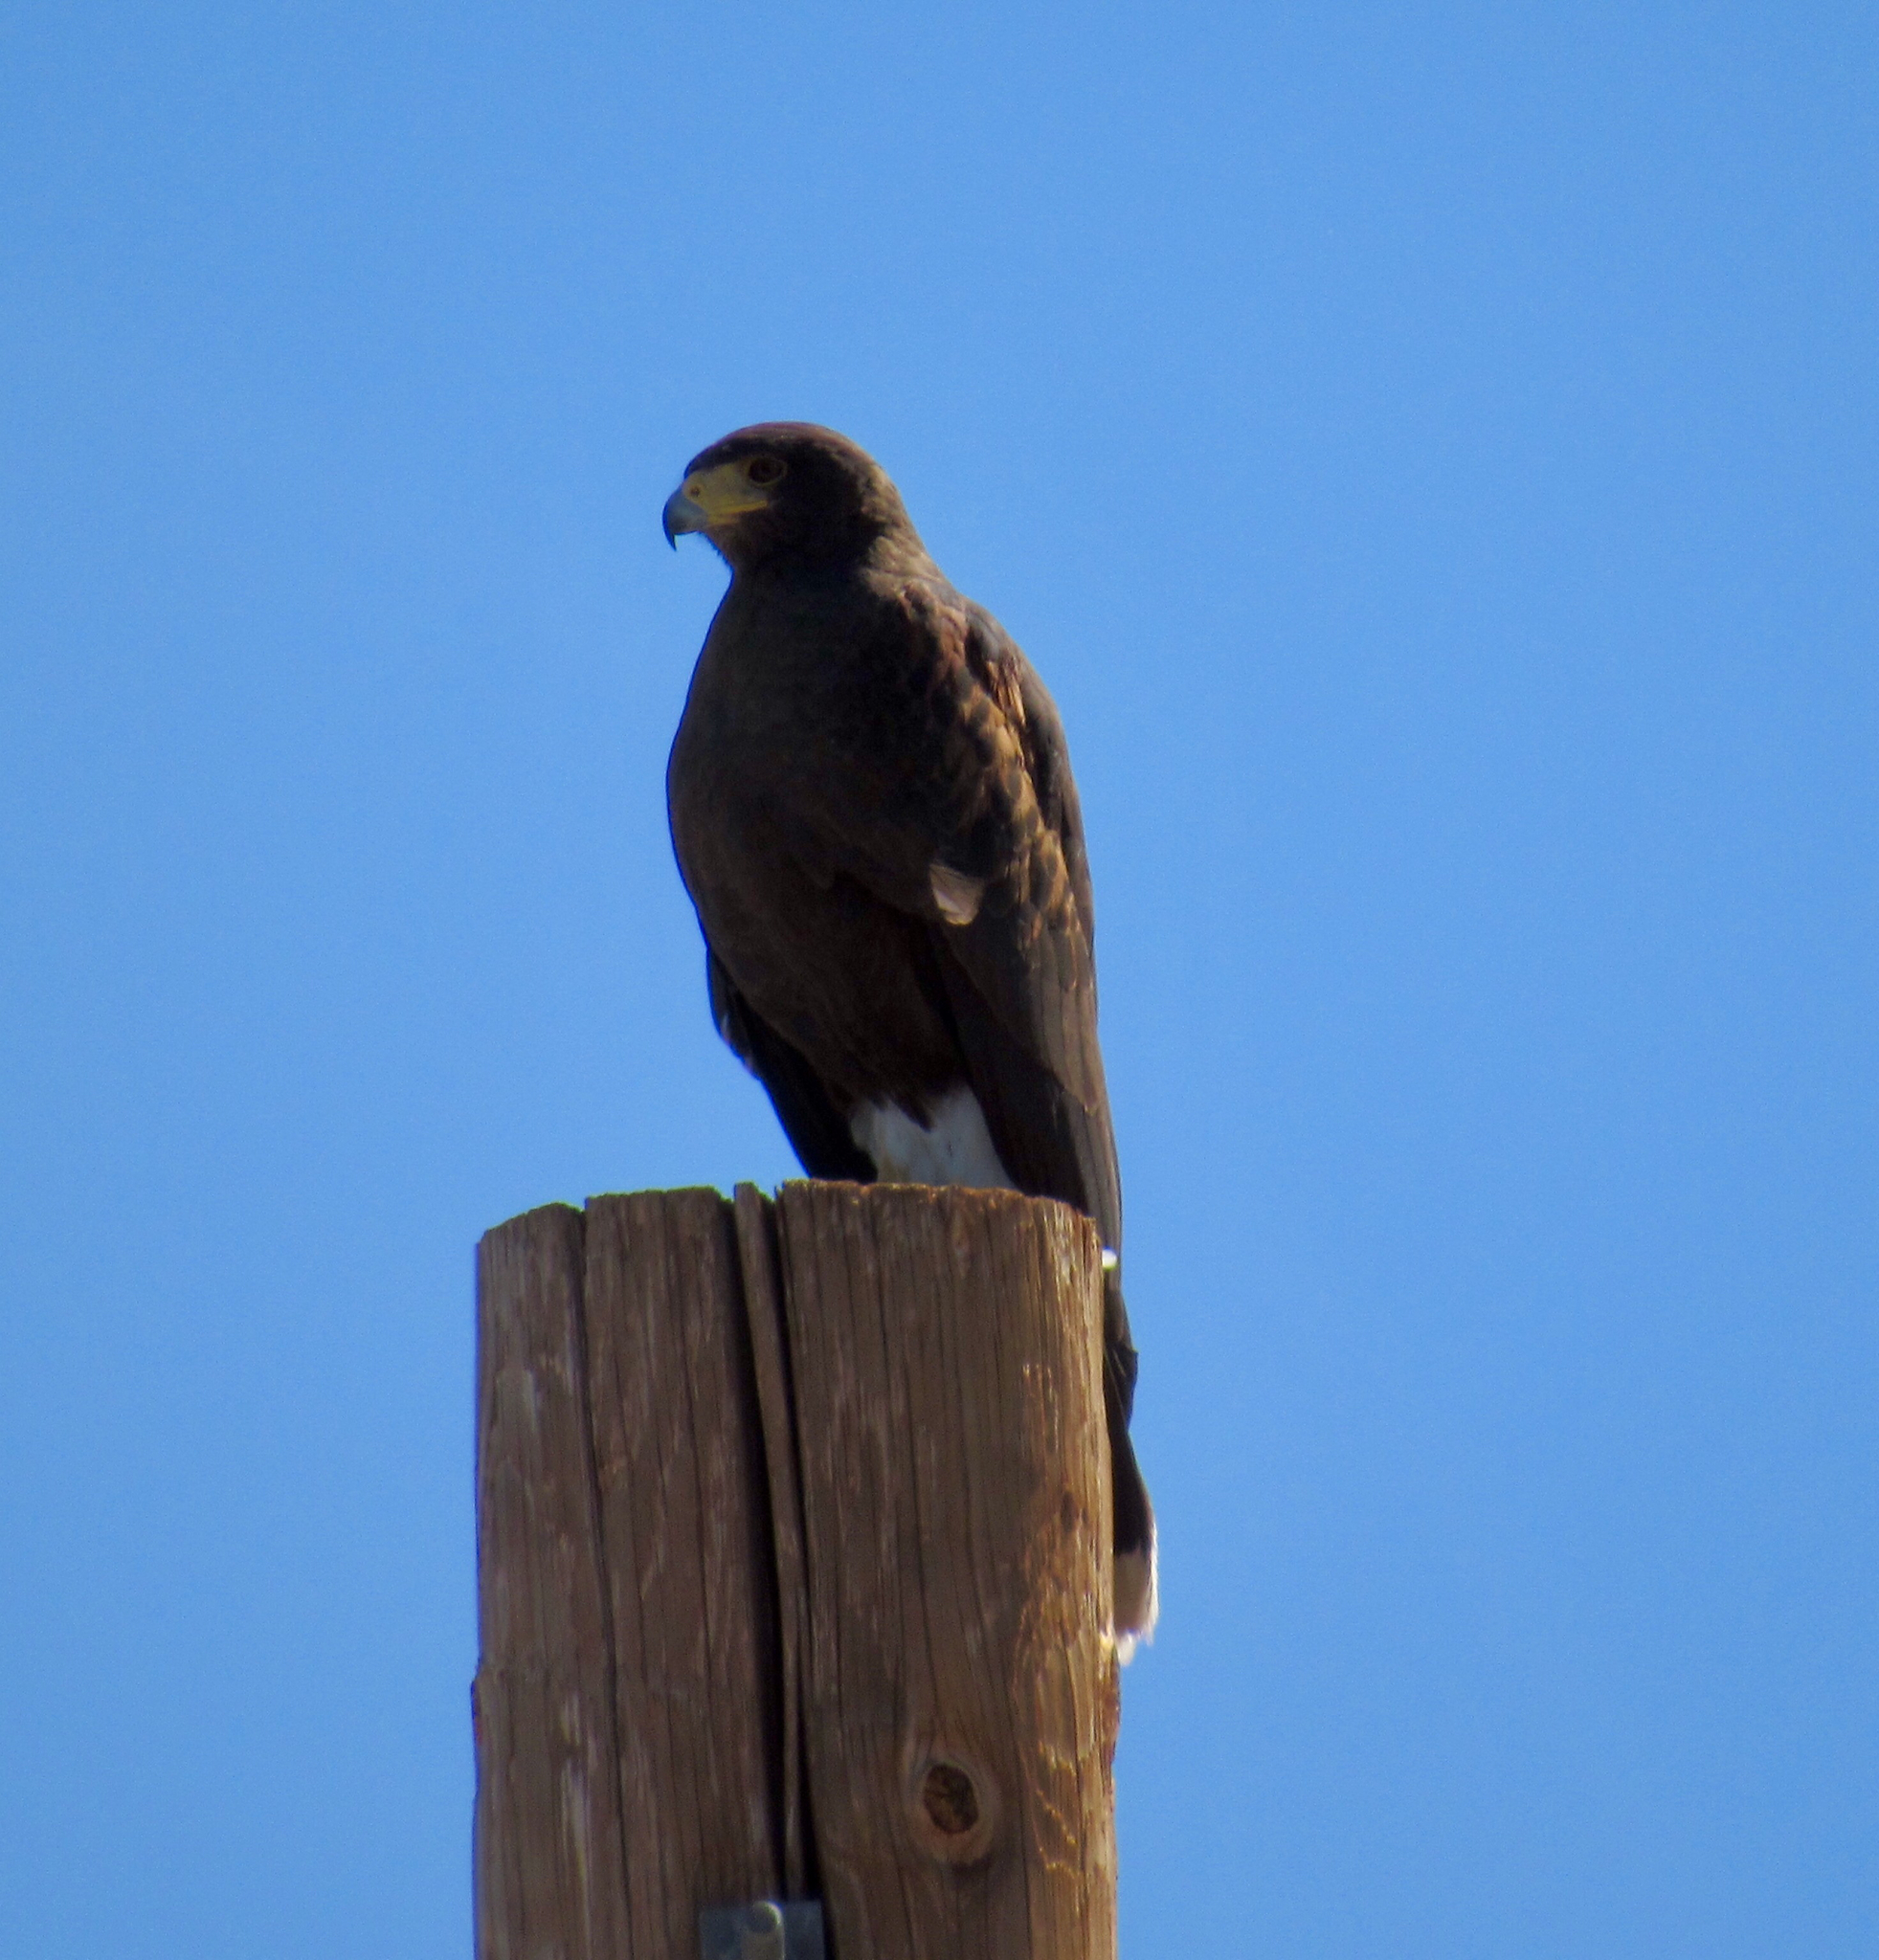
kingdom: Animalia
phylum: Chordata
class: Aves
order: Accipitriformes
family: Accipitridae
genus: Parabuteo
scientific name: Parabuteo unicinctus
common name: Harris's hawk
